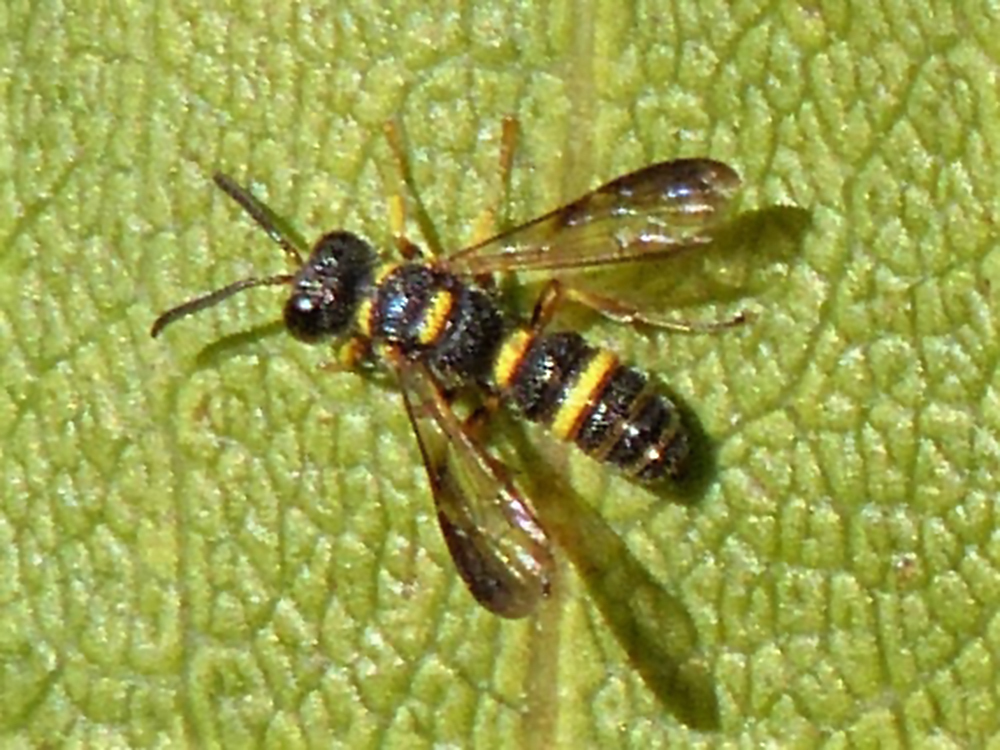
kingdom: Animalia
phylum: Arthropoda
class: Insecta
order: Hymenoptera
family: Crabronidae
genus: Cerceris
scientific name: Cerceris insolita
